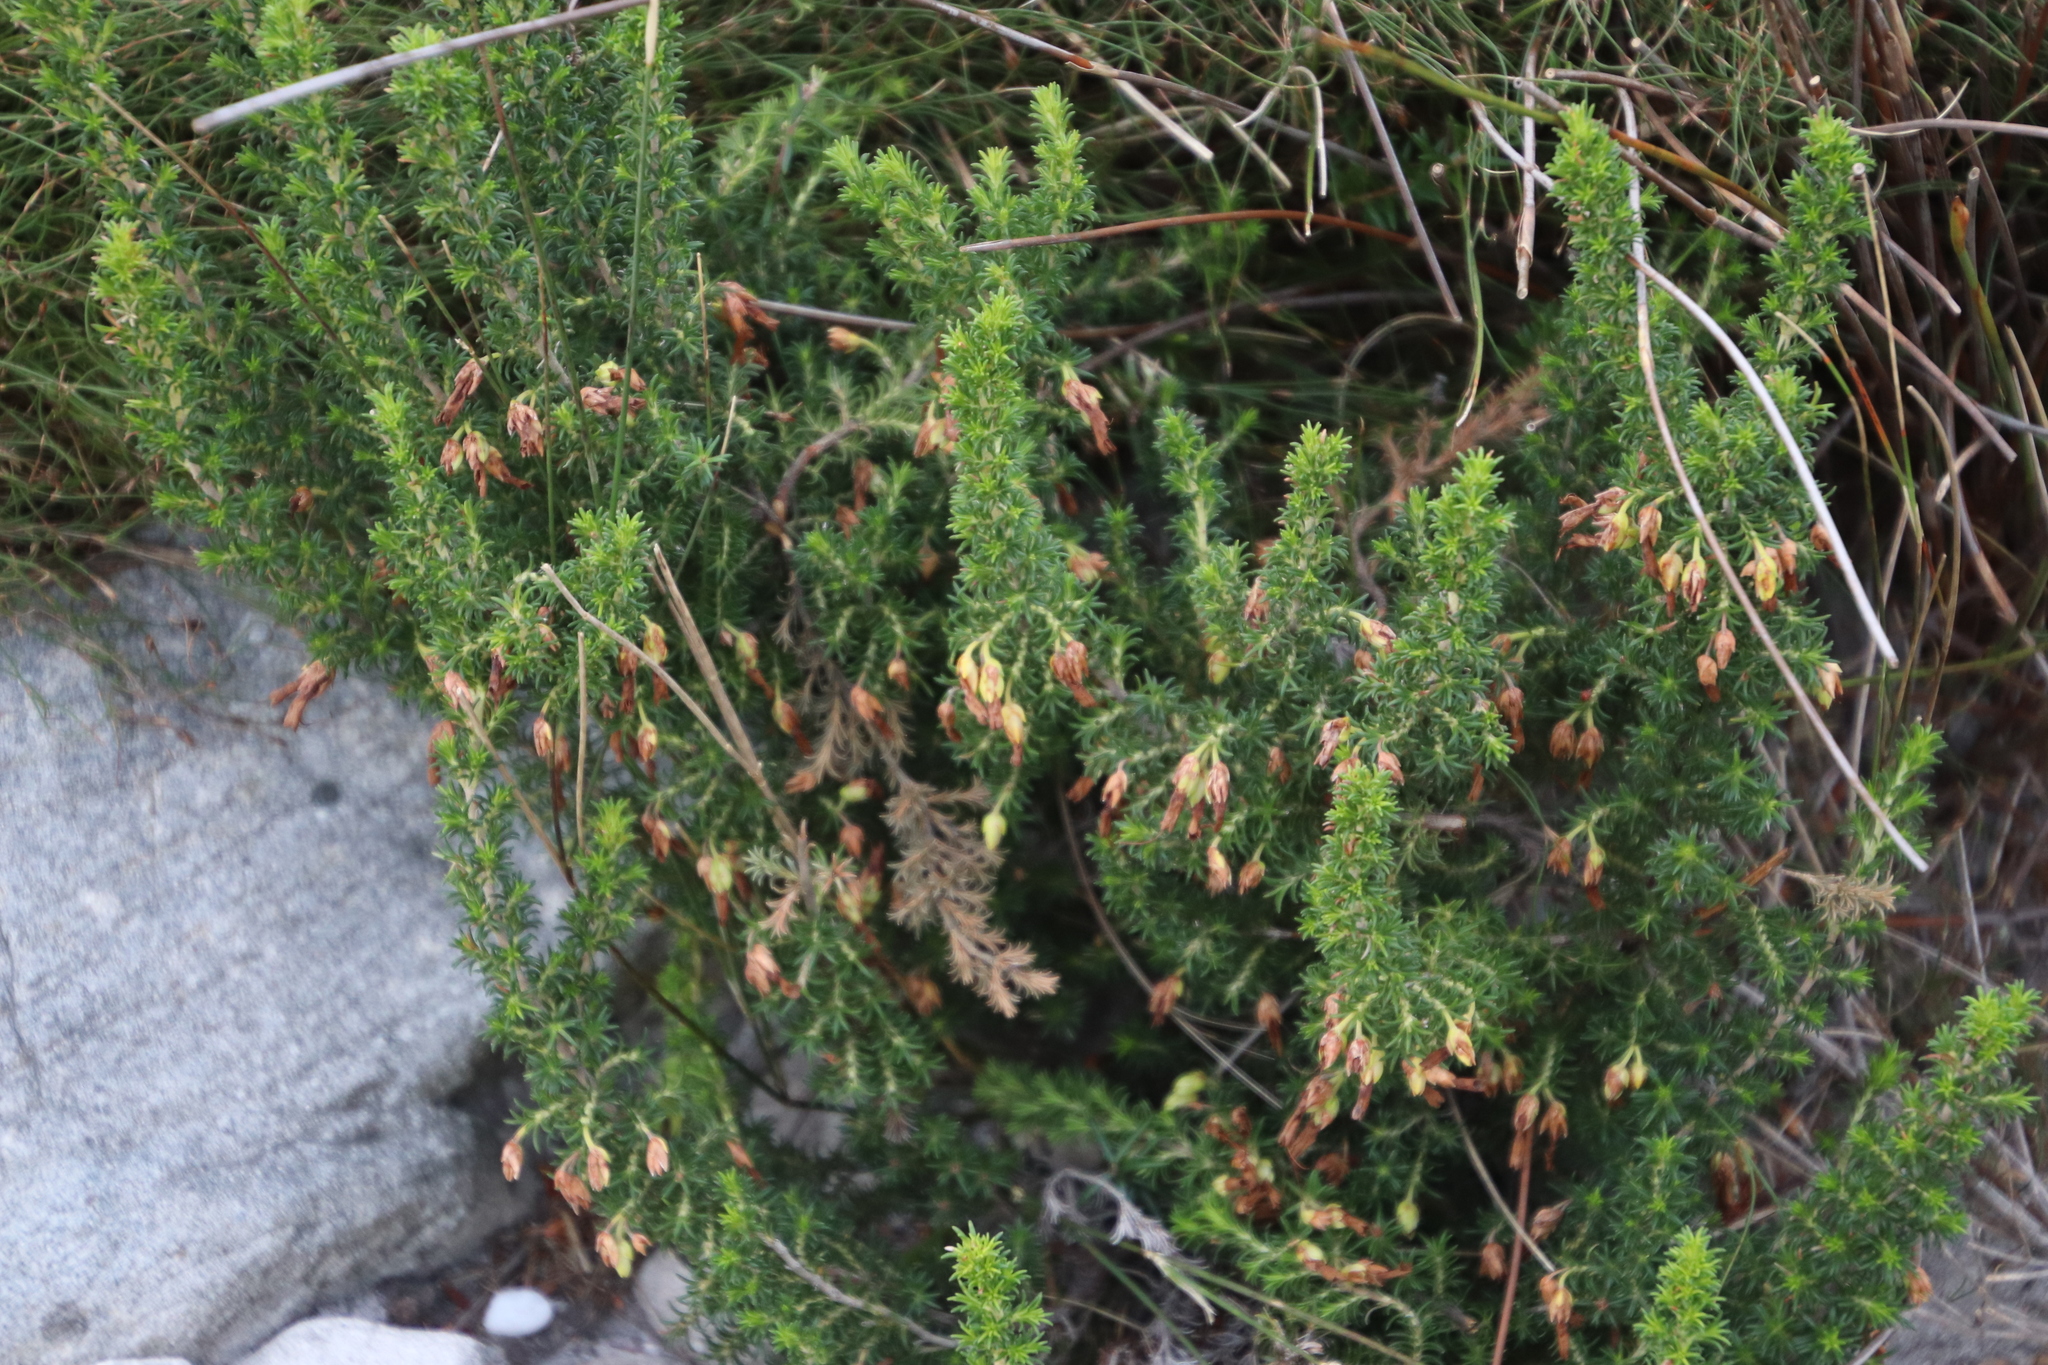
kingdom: Plantae
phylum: Tracheophyta
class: Magnoliopsida
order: Ericales
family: Ericaceae
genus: Erica
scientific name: Erica coccinea
